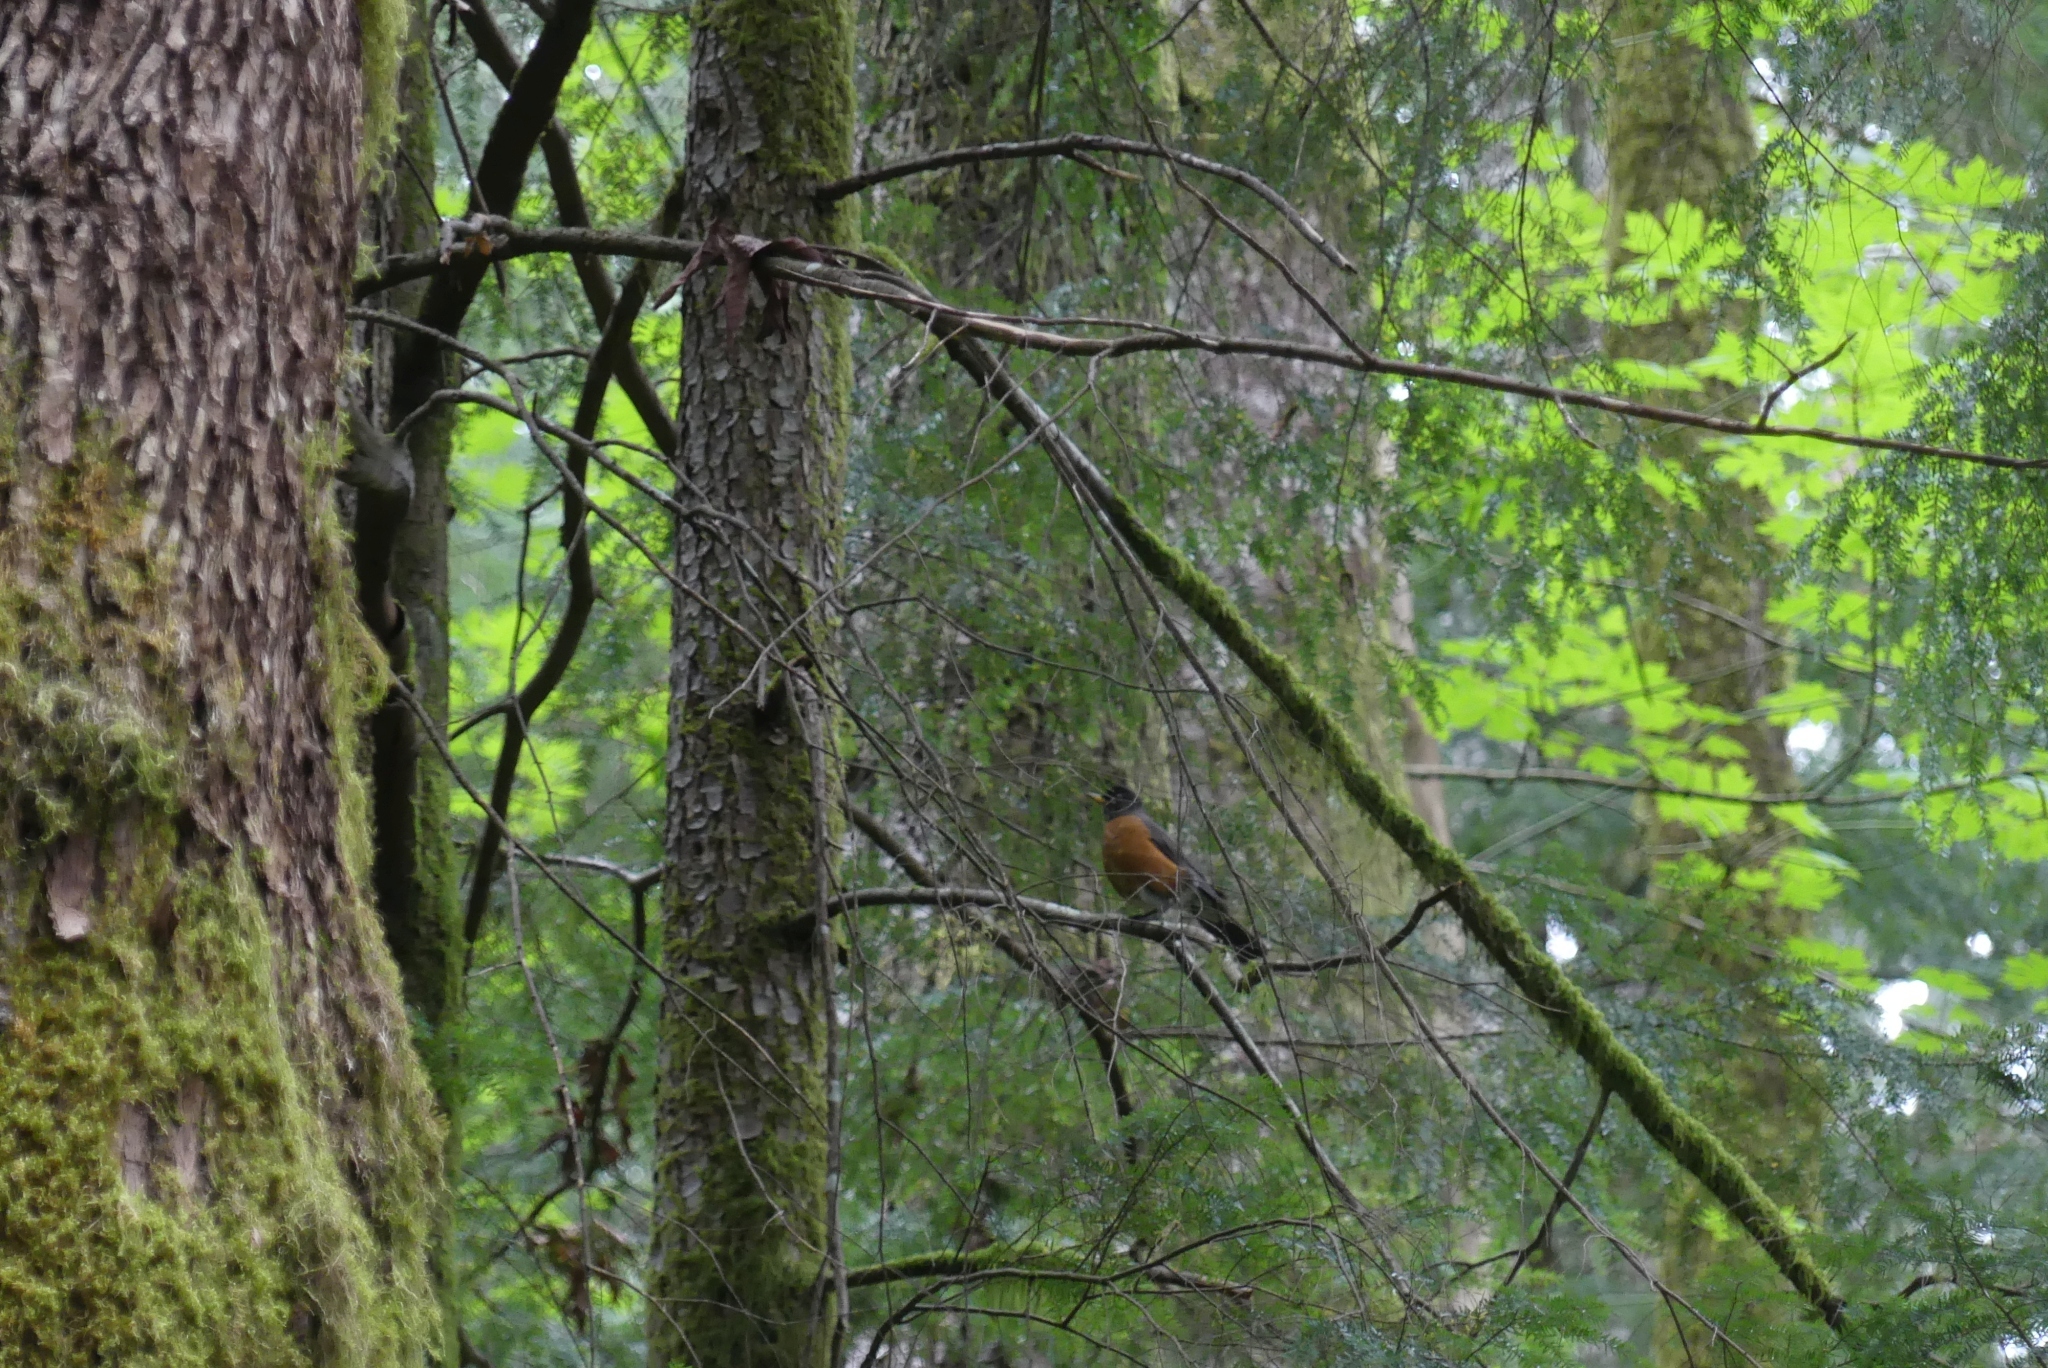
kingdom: Animalia
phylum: Chordata
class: Aves
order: Passeriformes
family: Turdidae
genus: Turdus
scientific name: Turdus migratorius
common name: American robin
